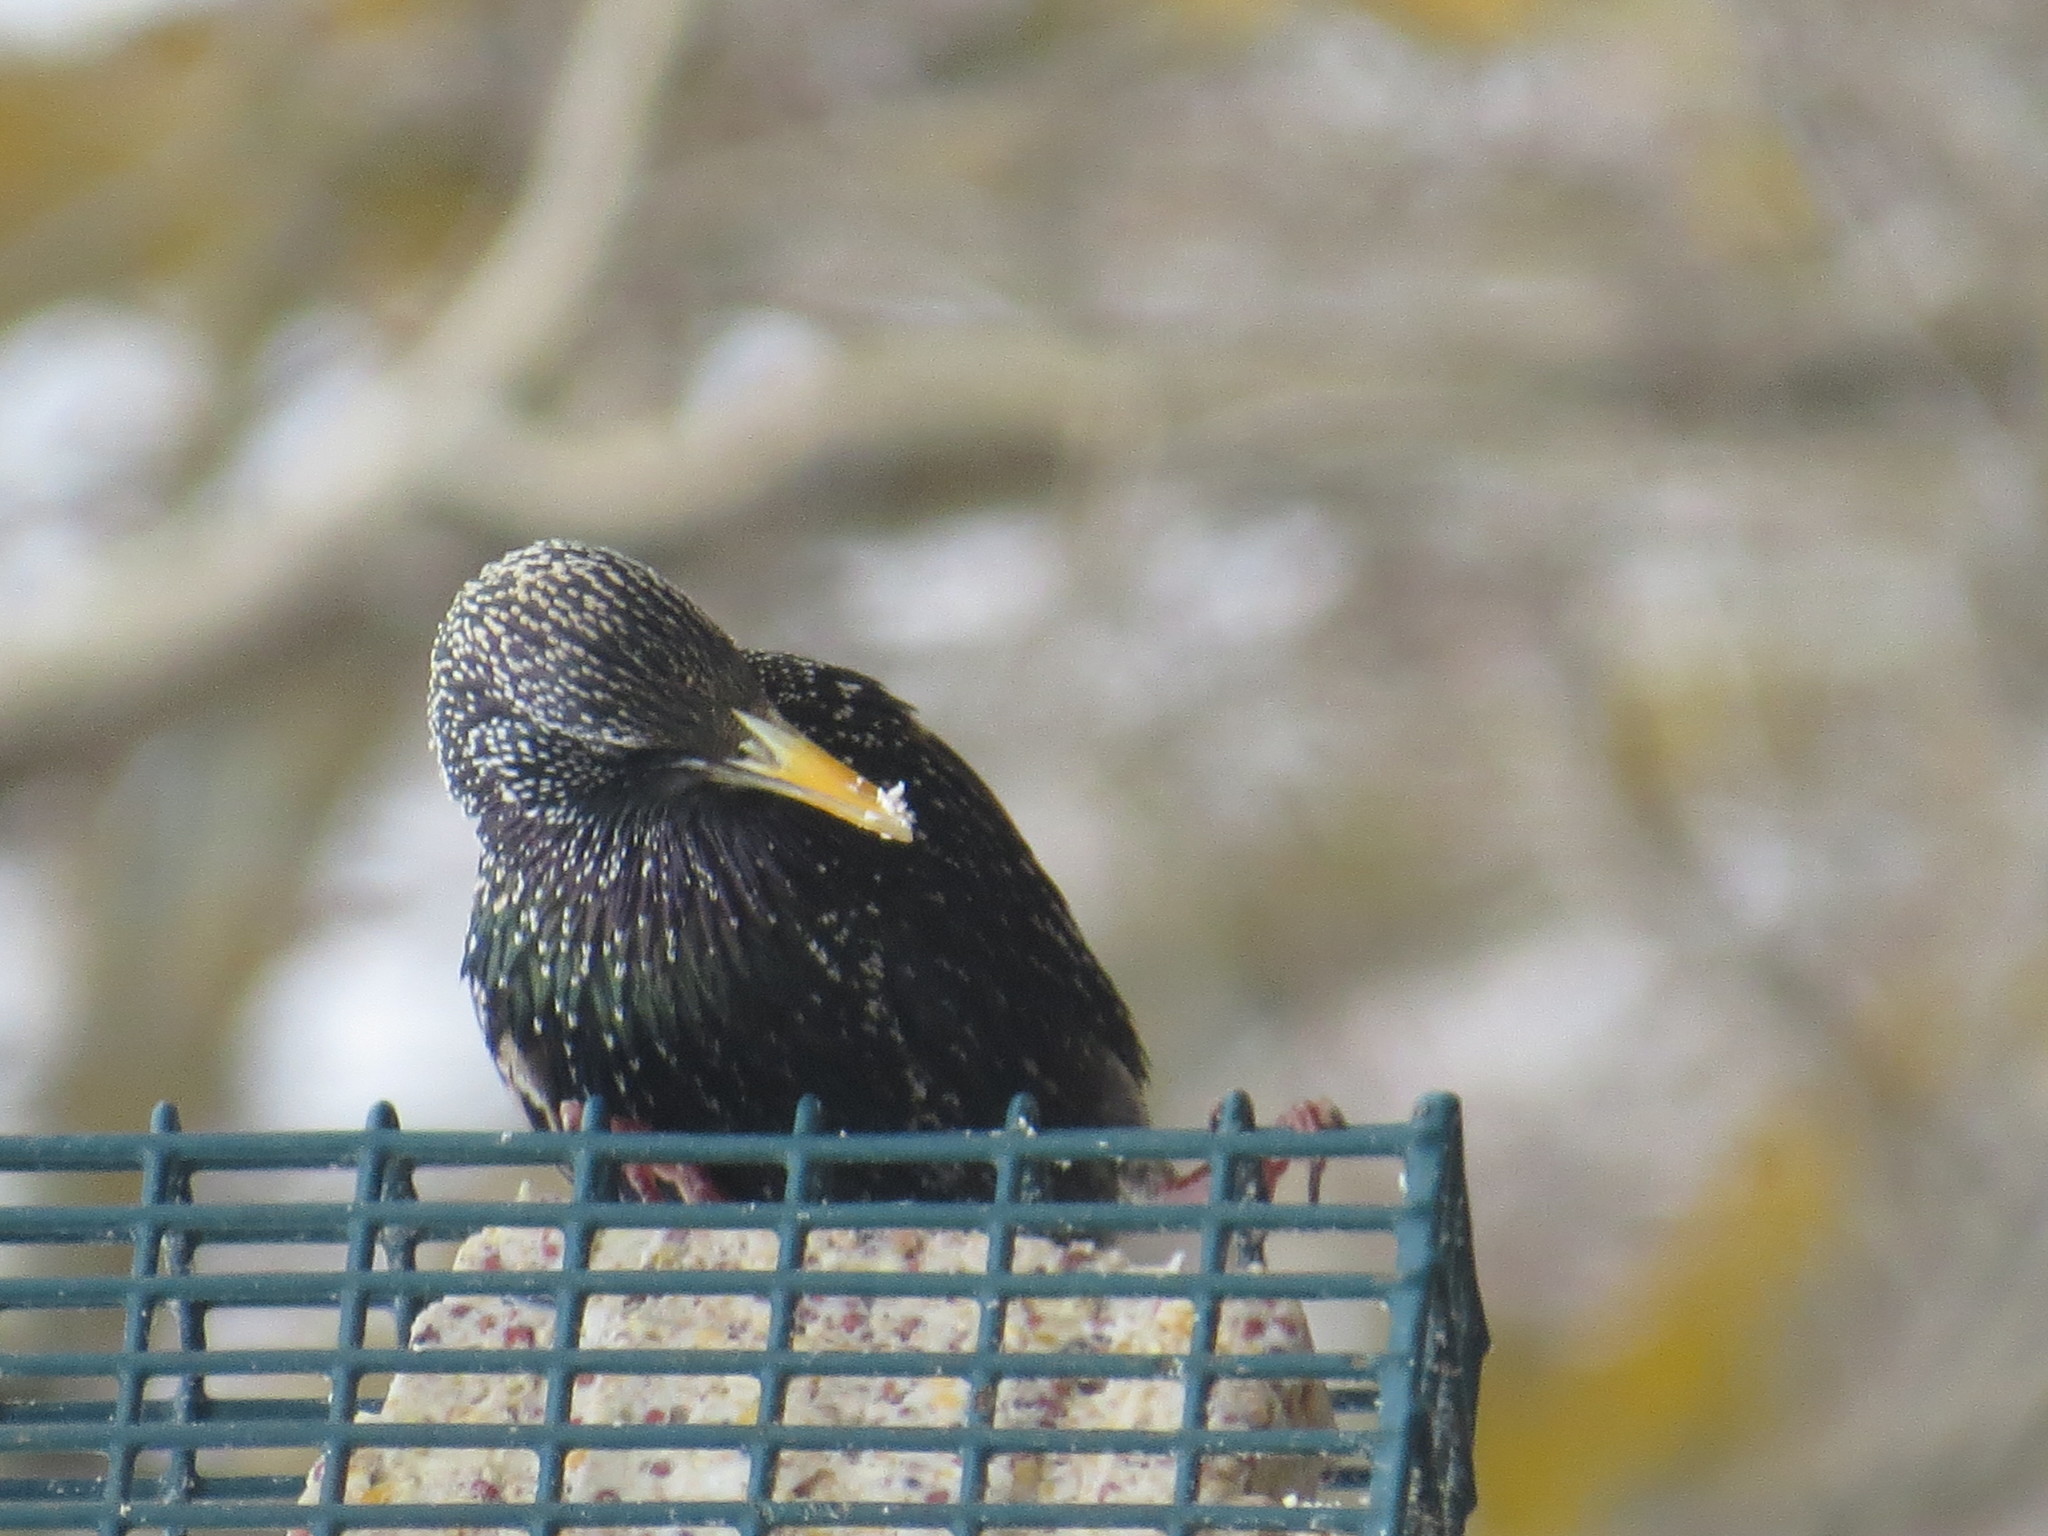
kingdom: Animalia
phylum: Chordata
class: Aves
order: Passeriformes
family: Sturnidae
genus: Sturnus
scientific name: Sturnus vulgaris
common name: Common starling
